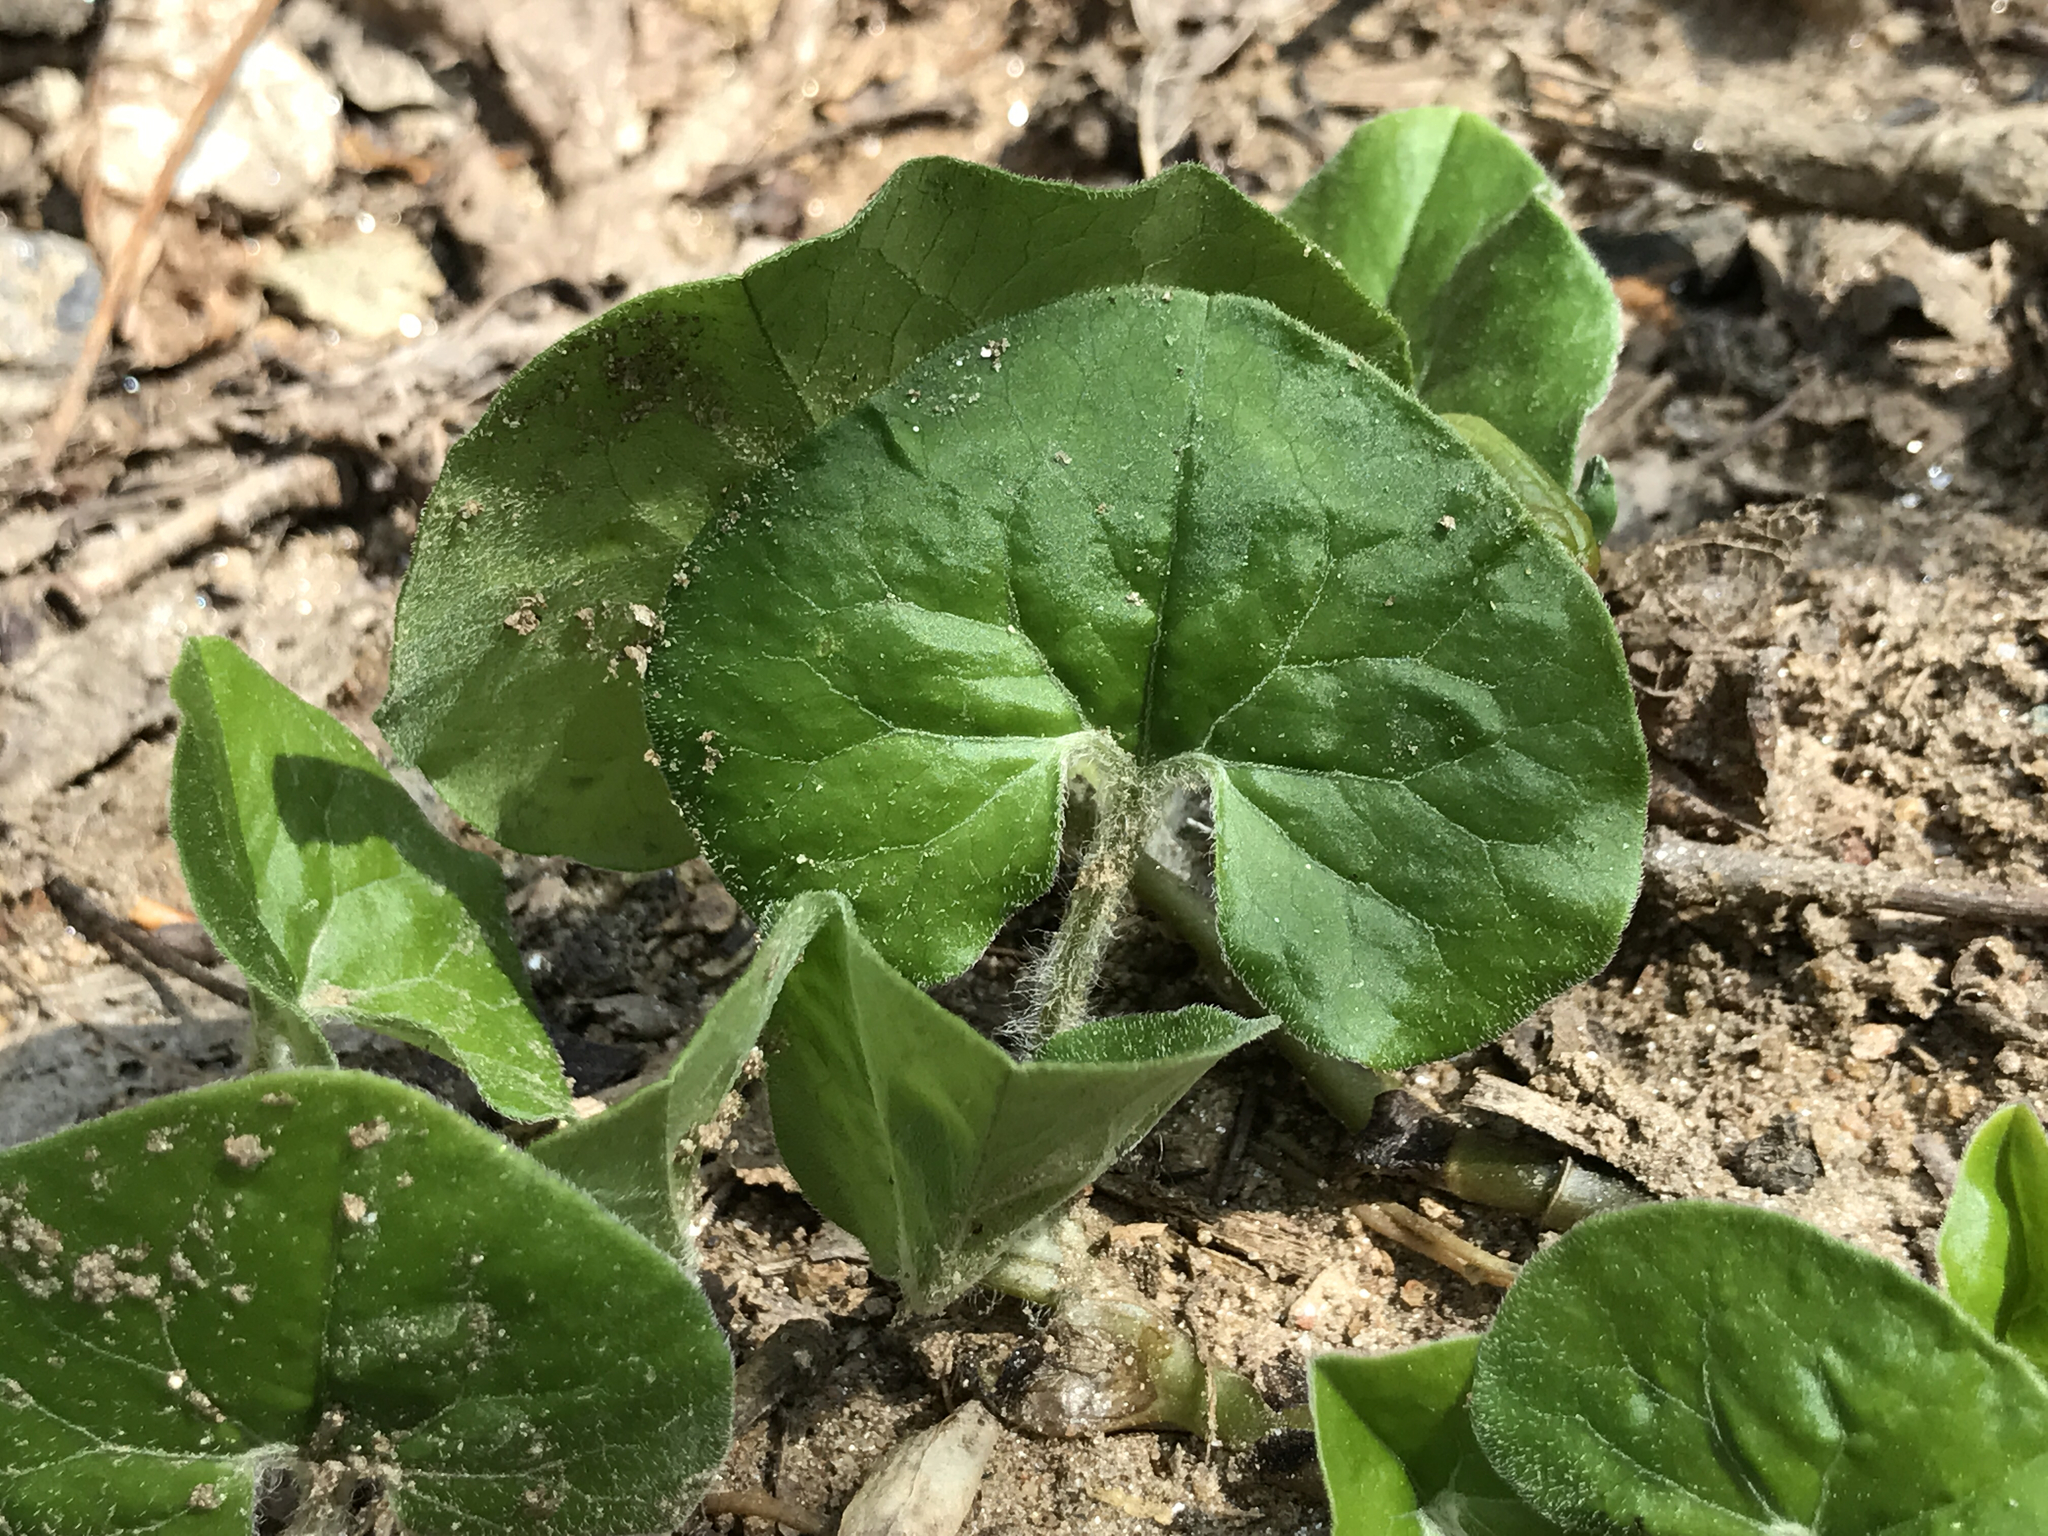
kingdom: Plantae
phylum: Tracheophyta
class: Magnoliopsida
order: Piperales
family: Aristolochiaceae
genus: Asarum
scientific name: Asarum canadense
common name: Wild ginger
